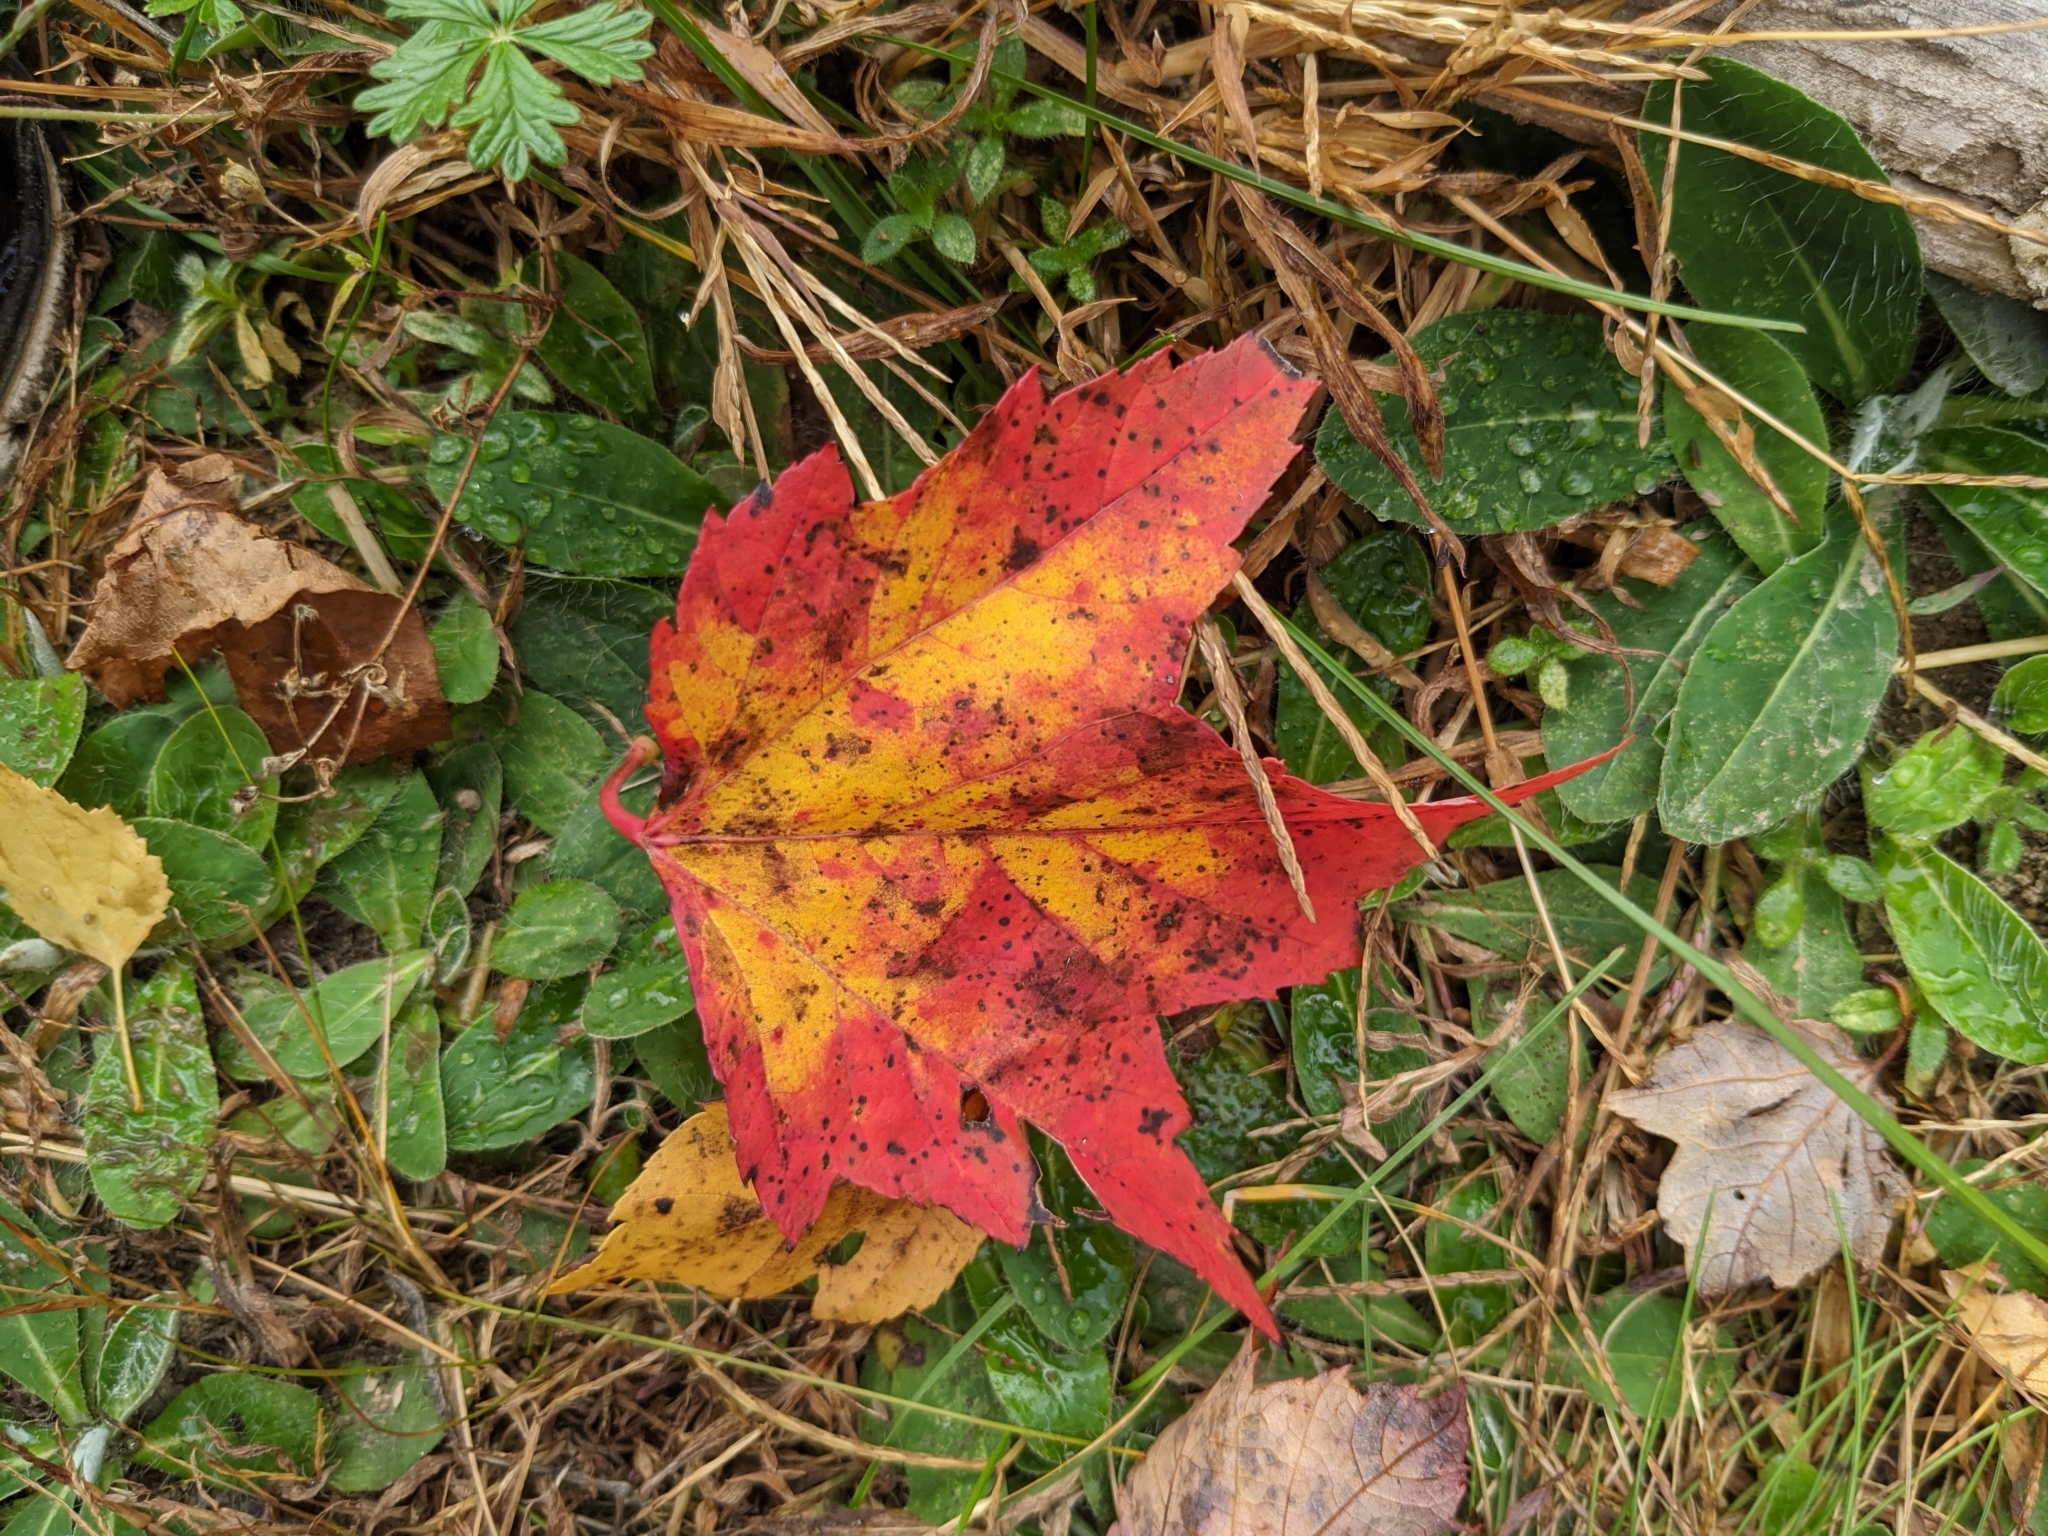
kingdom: Plantae
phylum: Tracheophyta
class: Magnoliopsida
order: Sapindales
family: Sapindaceae
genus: Acer
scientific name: Acer rubrum
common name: Red maple
